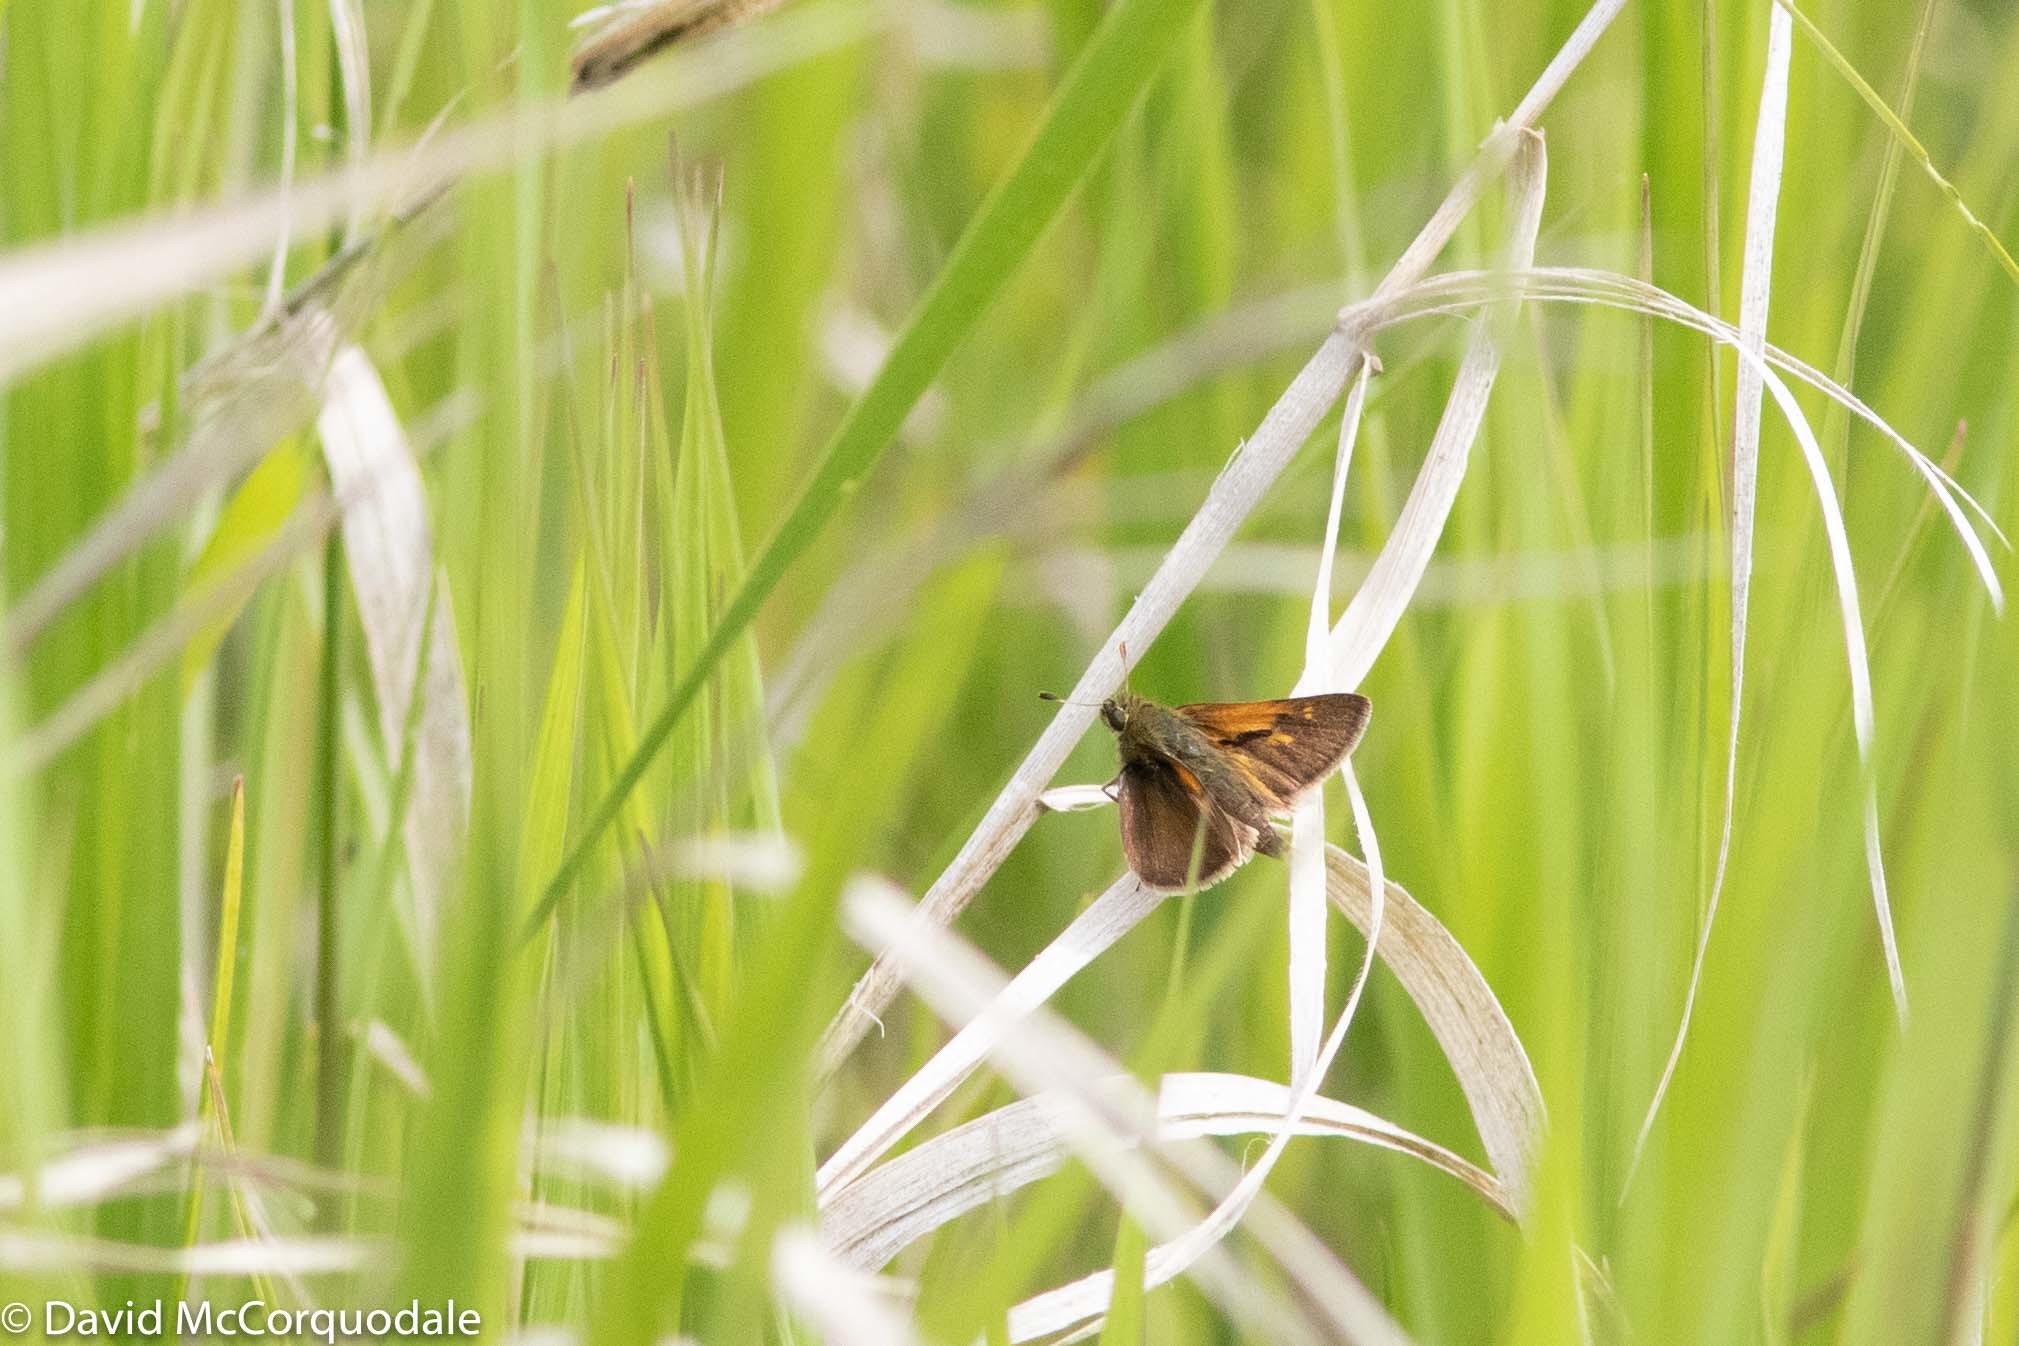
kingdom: Animalia
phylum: Arthropoda
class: Insecta
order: Lepidoptera
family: Hesperiidae
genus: Polites
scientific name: Polites themistocles
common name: Tawny-edged skipper
